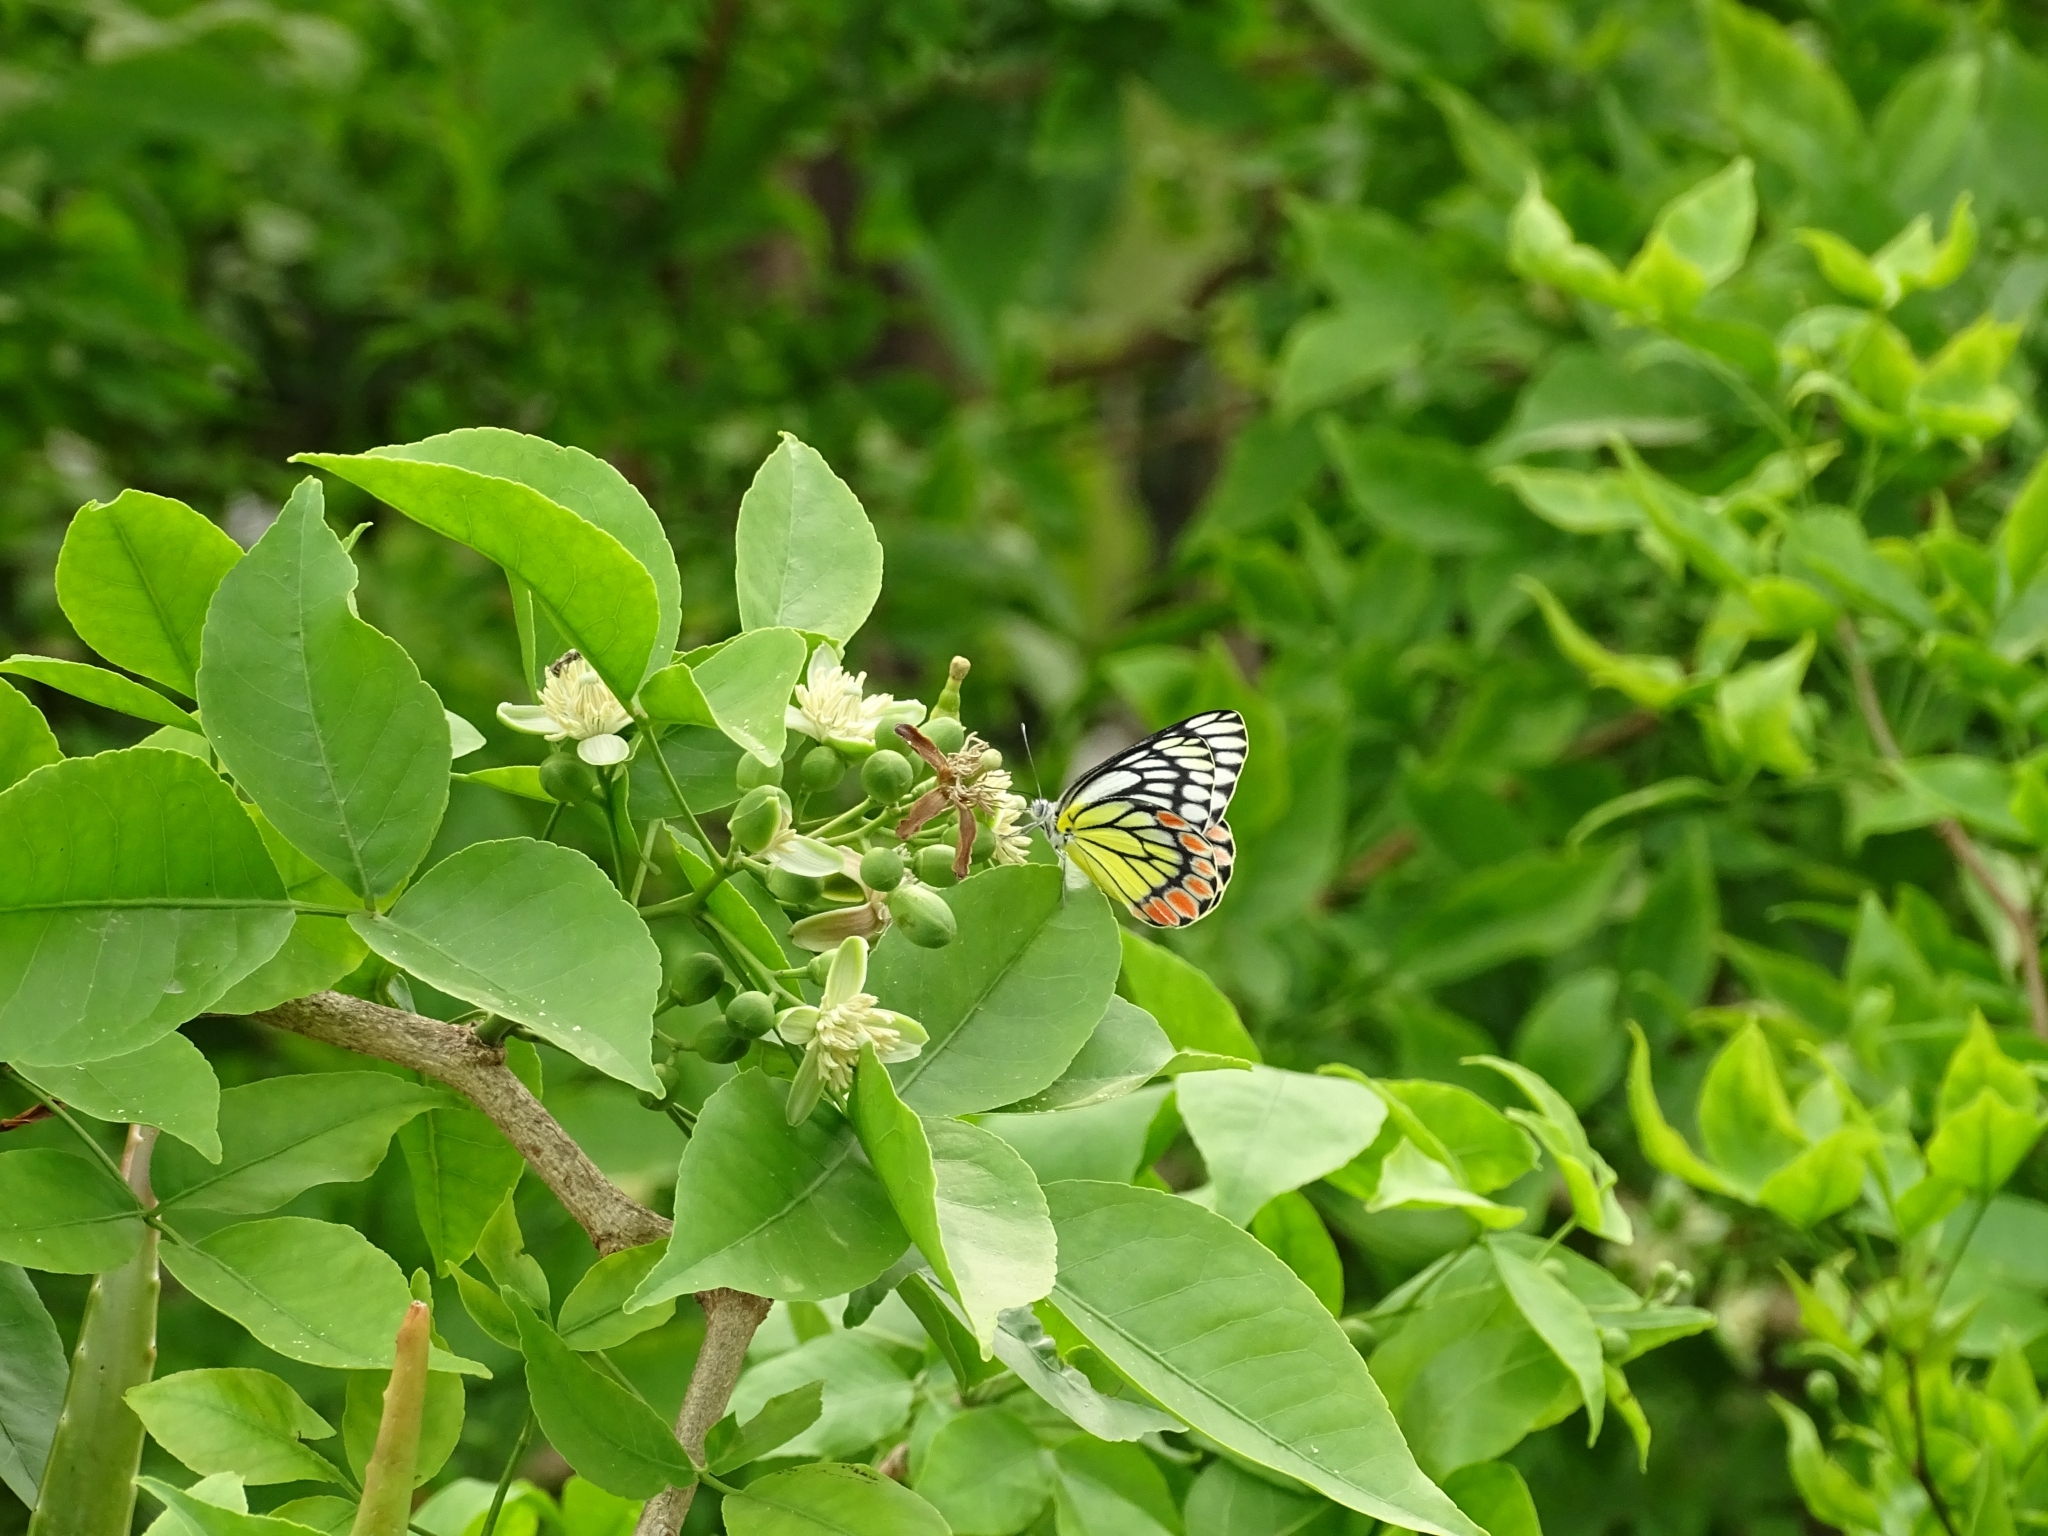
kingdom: Animalia
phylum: Arthropoda
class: Insecta
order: Lepidoptera
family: Pieridae
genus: Delias
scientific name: Delias eucharis
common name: Common jezebel
